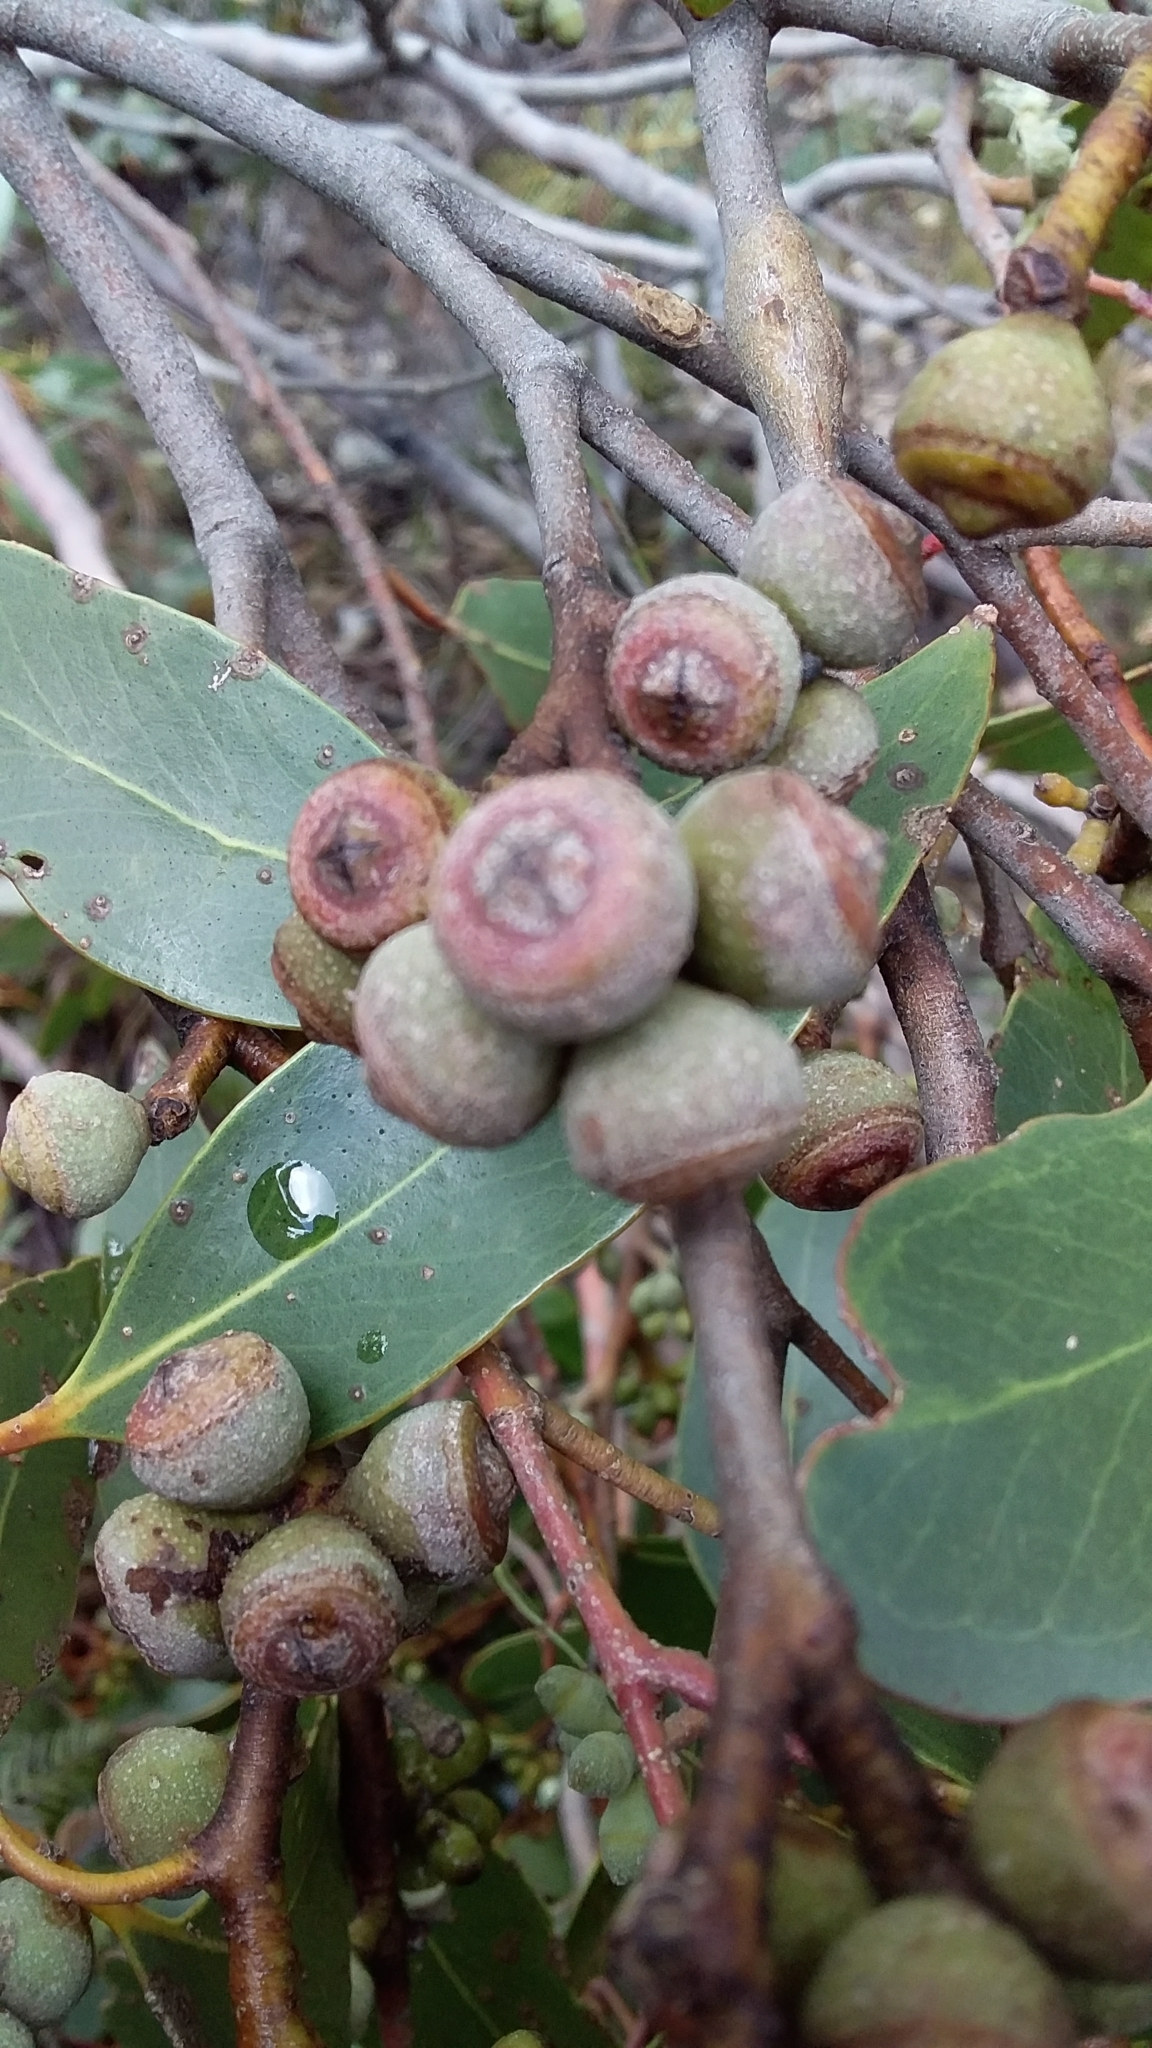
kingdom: Plantae
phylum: Tracheophyta
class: Magnoliopsida
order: Myrtales
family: Myrtaceae
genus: Eucalyptus
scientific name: Eucalyptus baxteri
